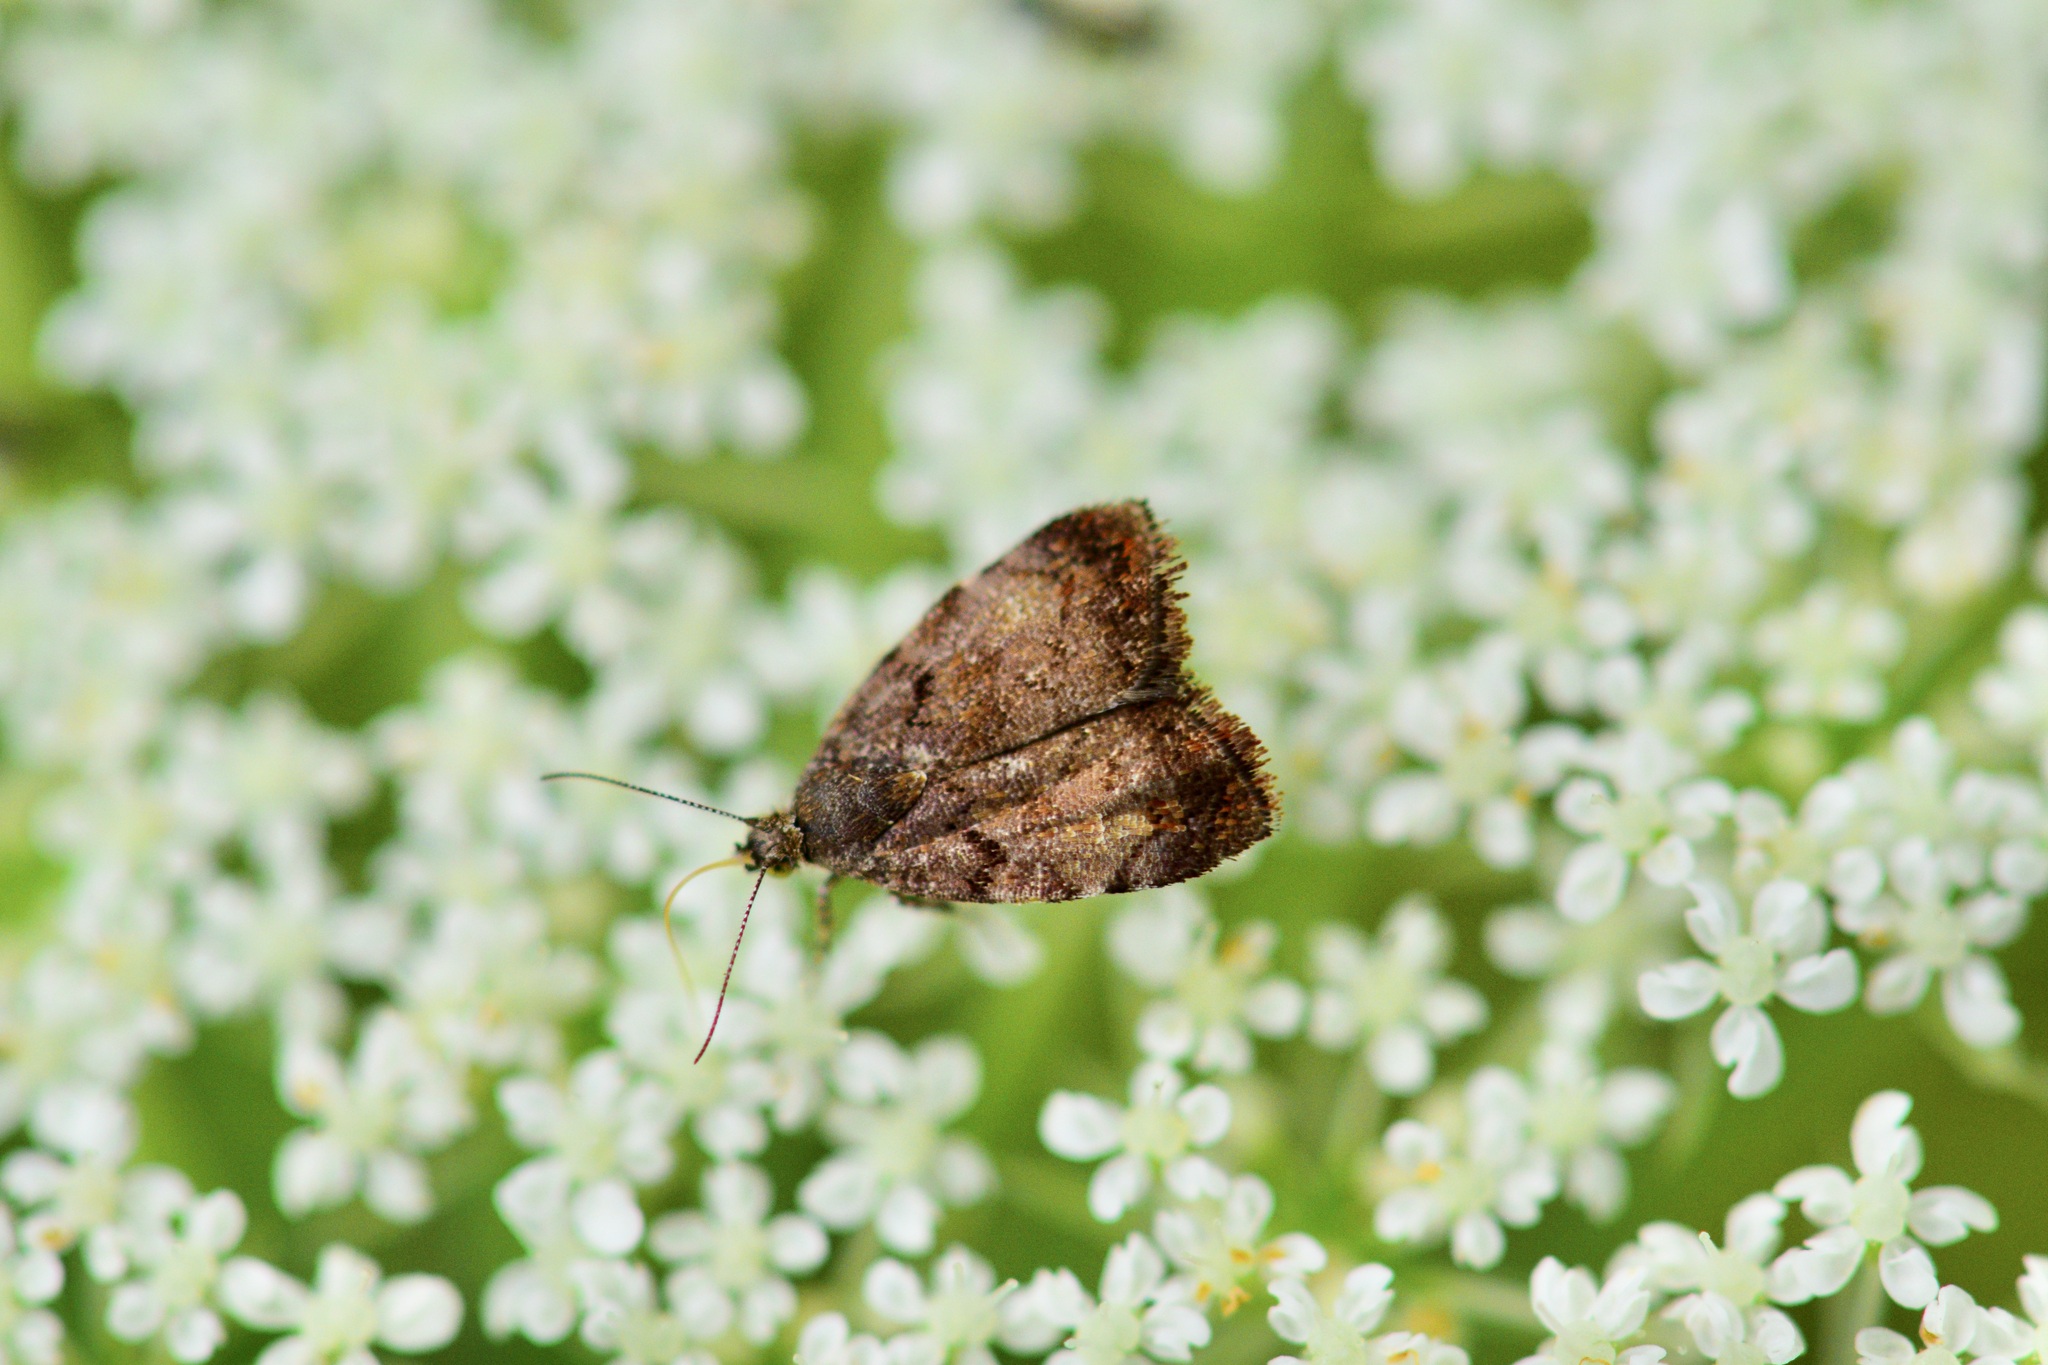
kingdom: Animalia
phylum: Arthropoda
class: Insecta
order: Lepidoptera
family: Choreutidae
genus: Choreutis
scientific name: Choreutis pariana
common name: Apple leaf skeletoniser
